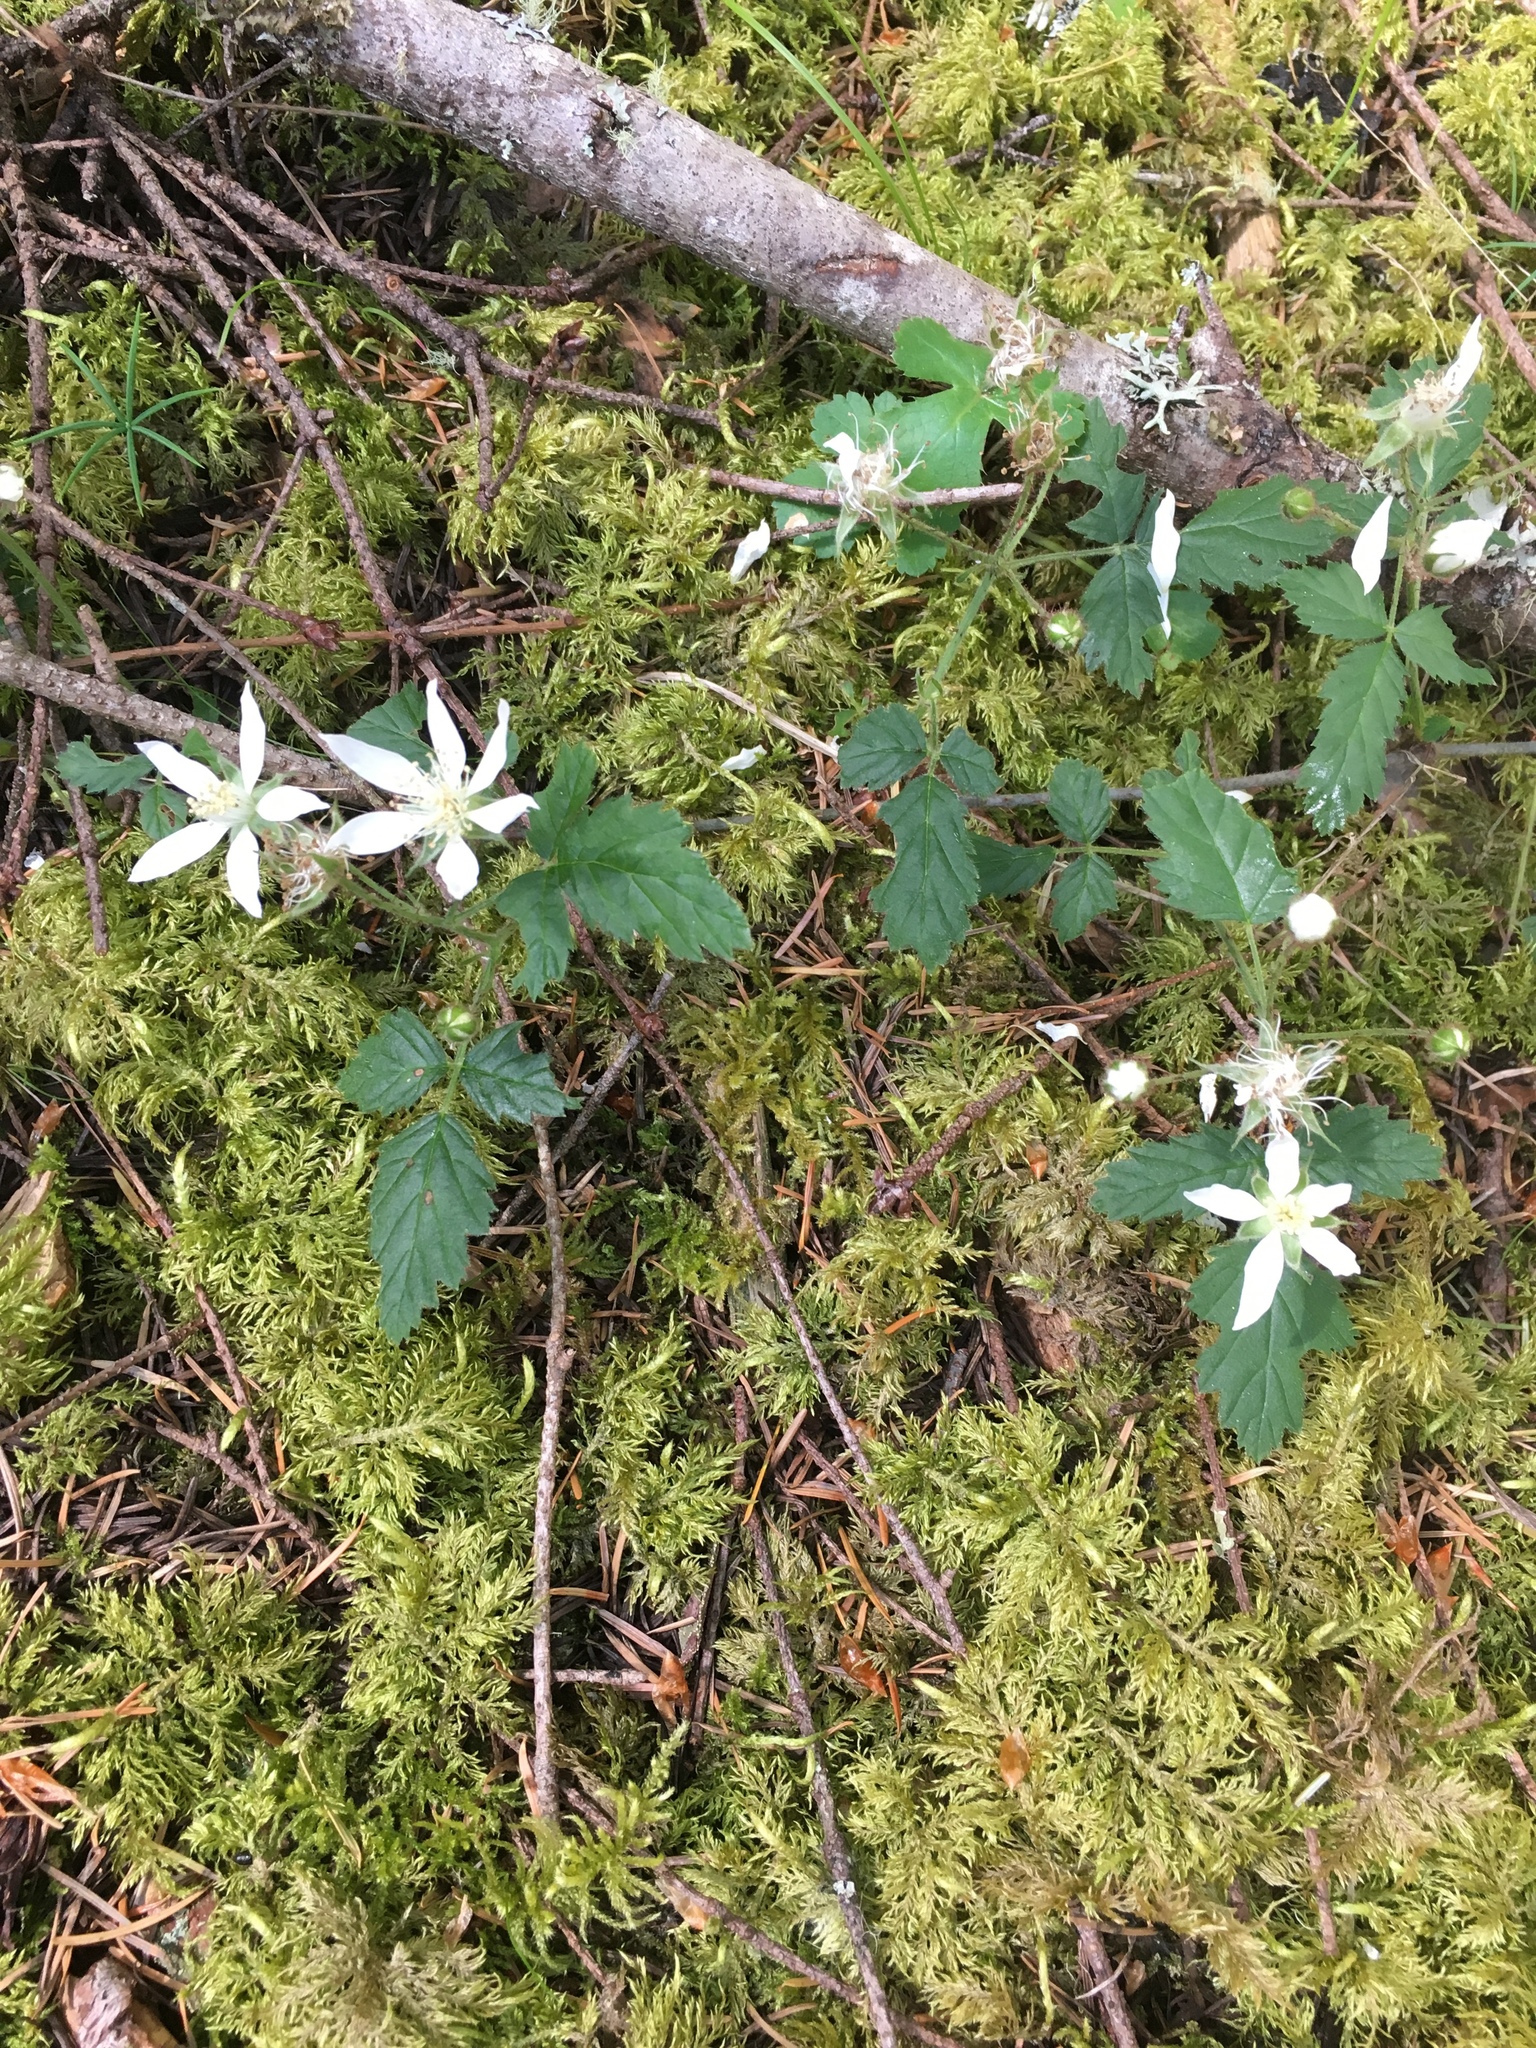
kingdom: Plantae
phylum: Tracheophyta
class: Magnoliopsida
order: Rosales
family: Rosaceae
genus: Rubus
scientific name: Rubus ursinus
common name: Pacific blackberry
